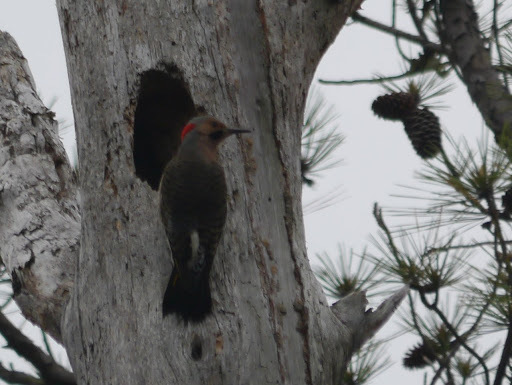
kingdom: Animalia
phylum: Chordata
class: Aves
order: Piciformes
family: Picidae
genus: Colaptes
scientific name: Colaptes auratus
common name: Northern flicker
